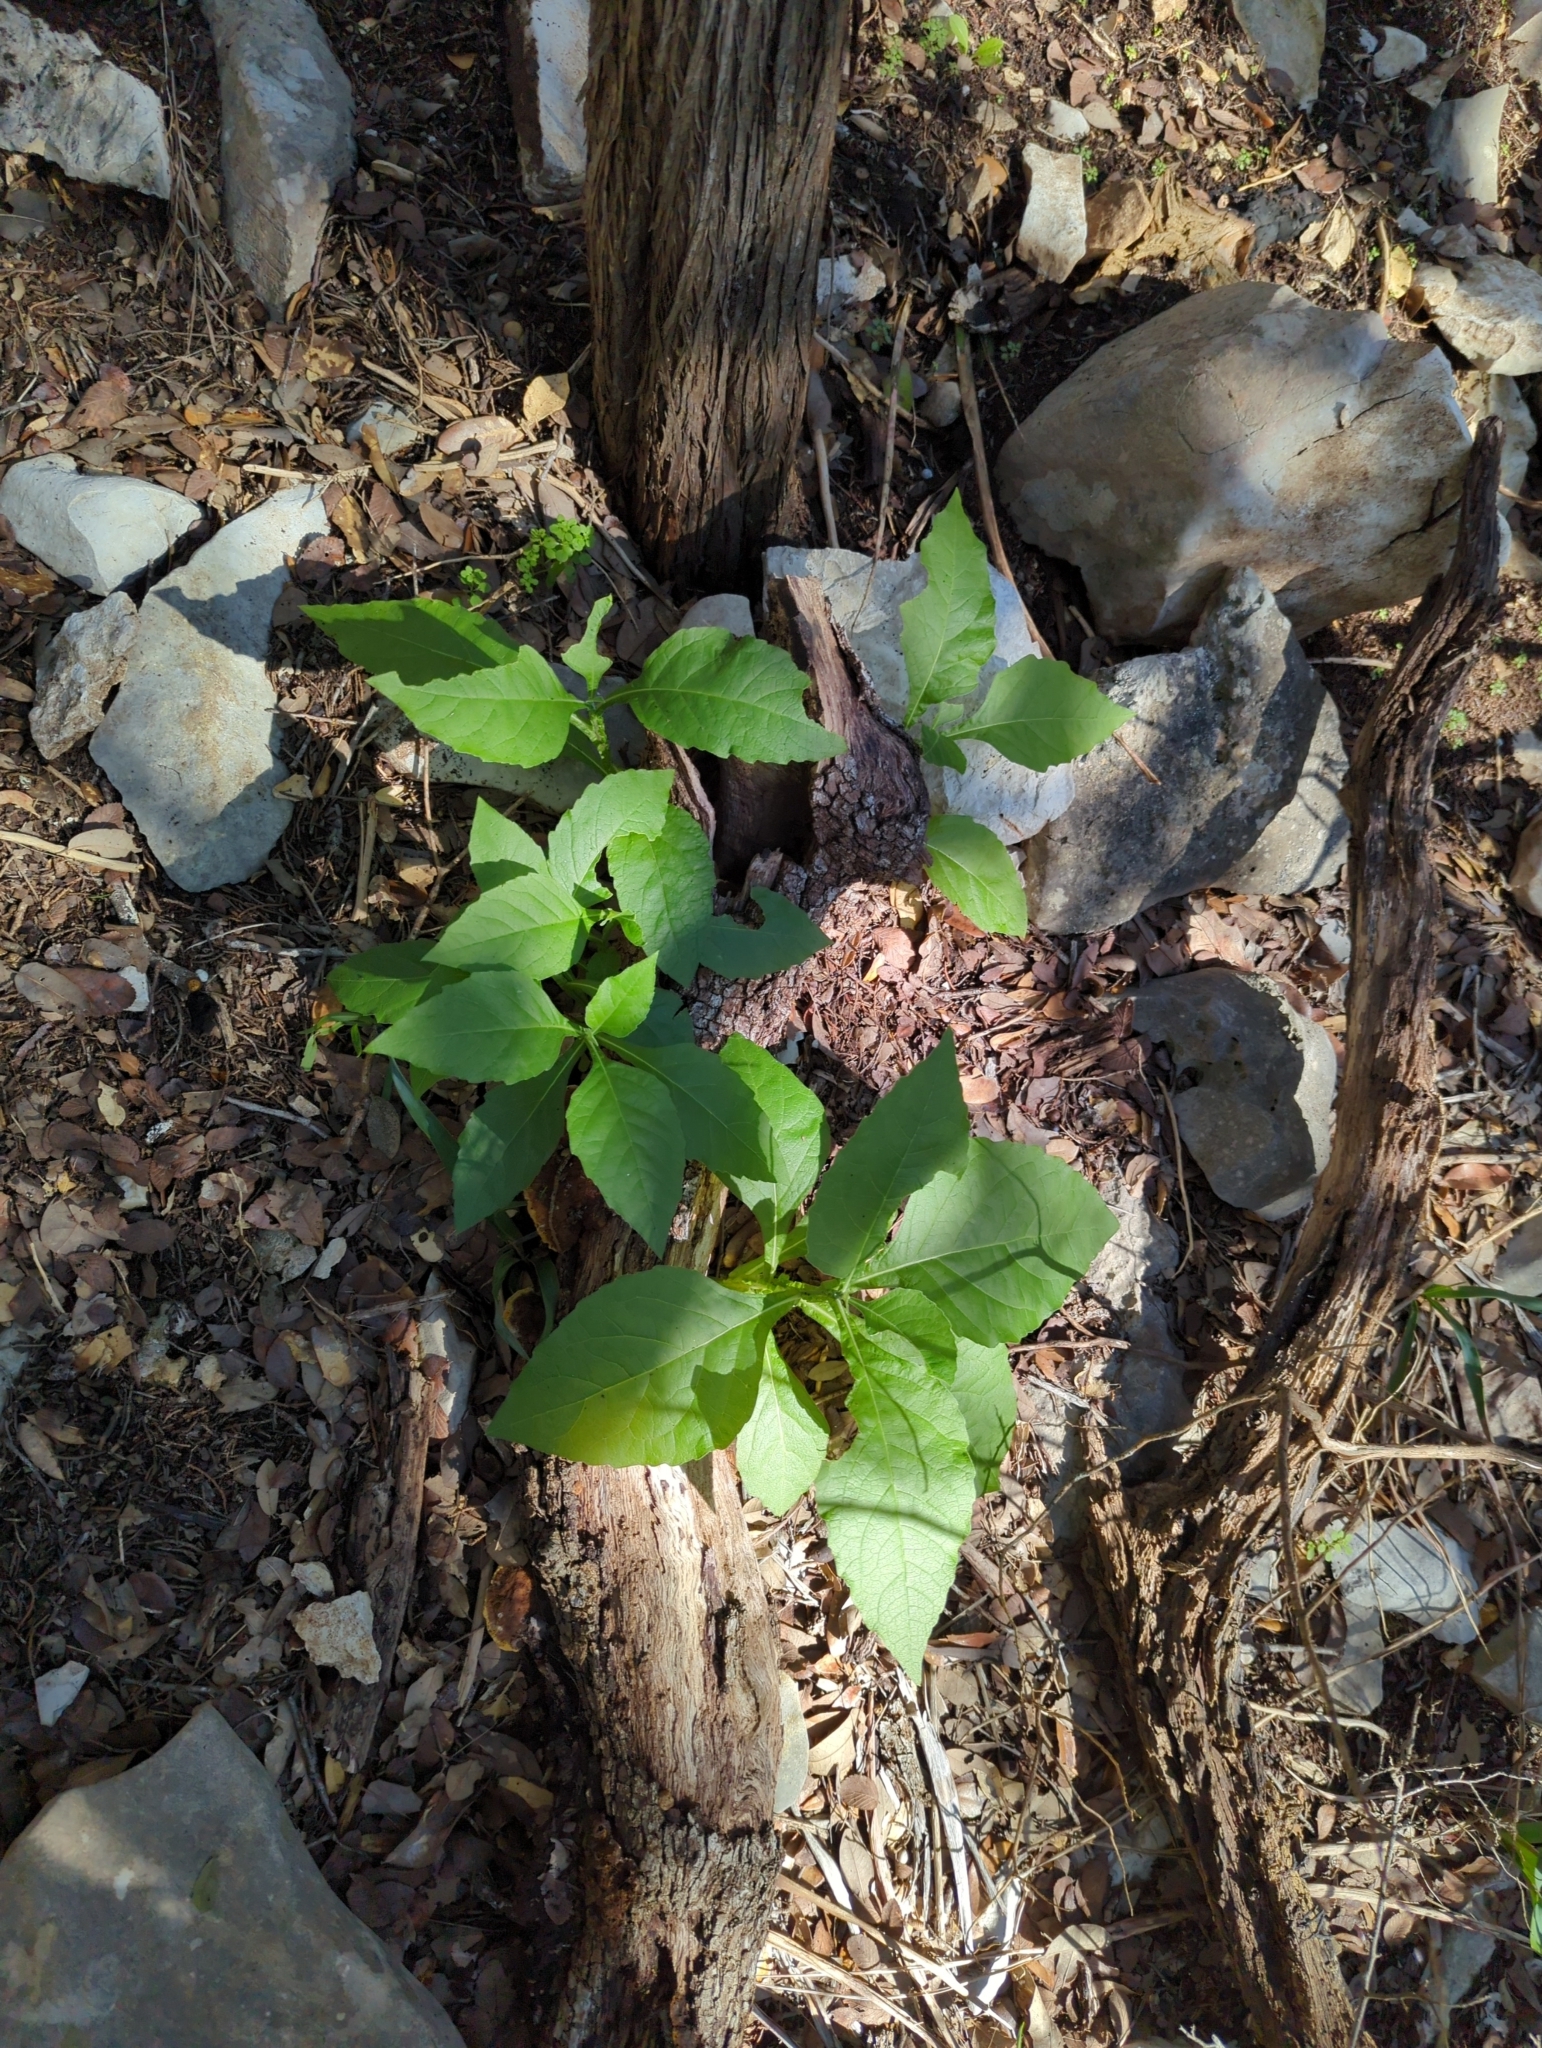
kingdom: Plantae
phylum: Tracheophyta
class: Magnoliopsida
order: Asterales
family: Asteraceae
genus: Verbesina
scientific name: Verbesina virginica
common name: Frostweed
